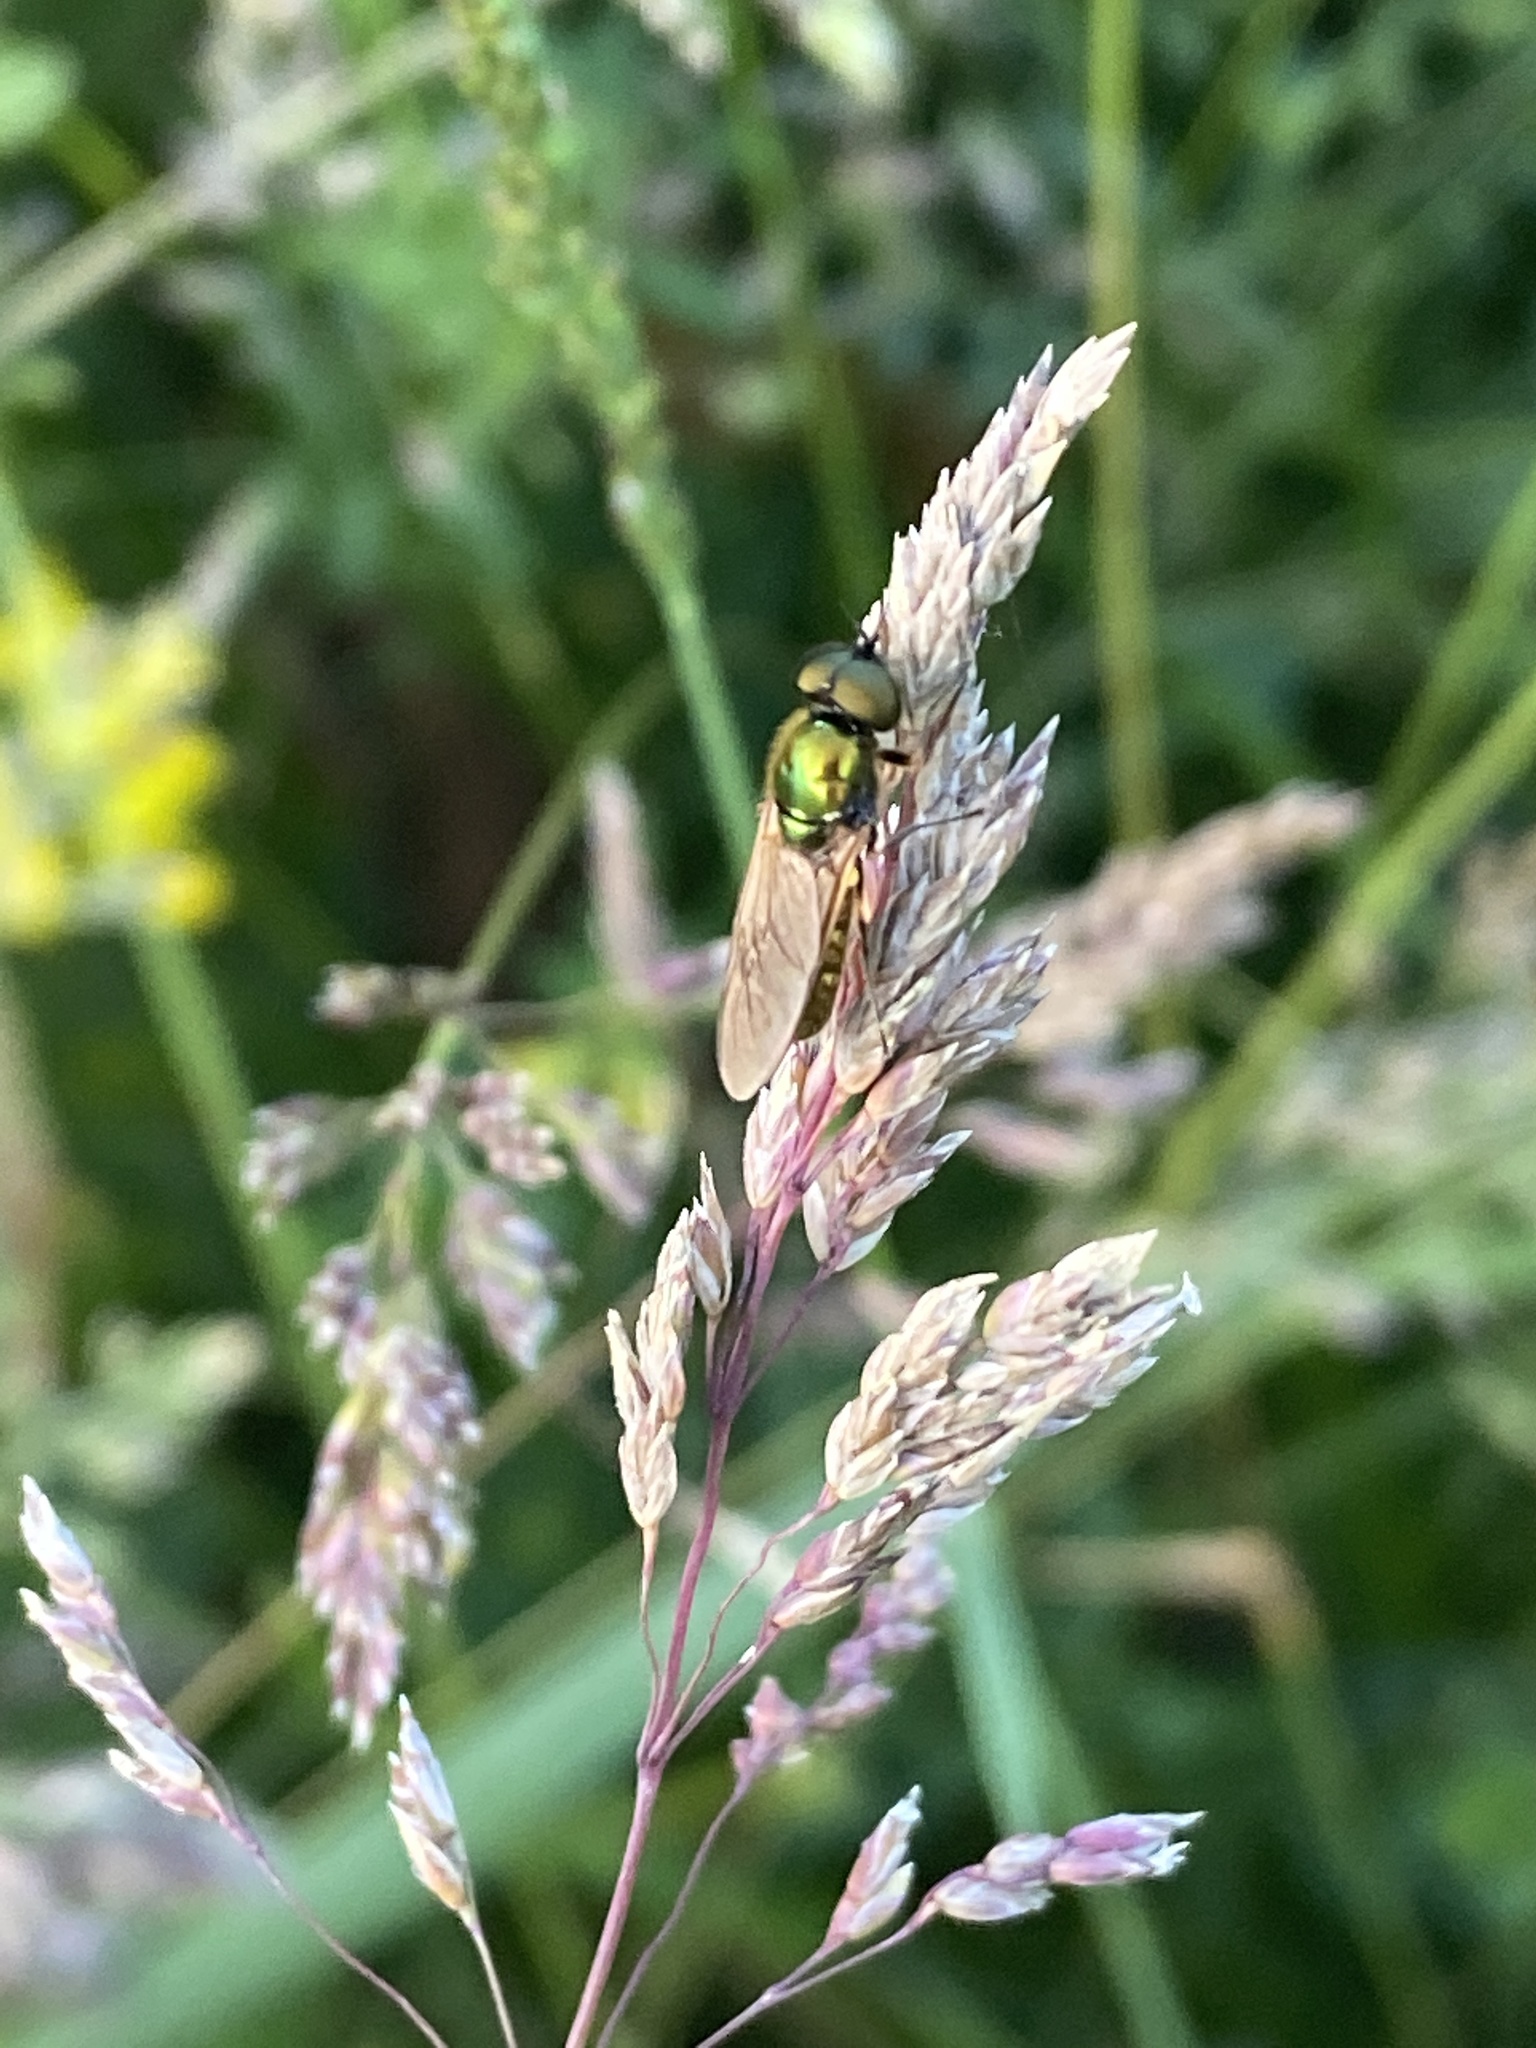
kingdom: Animalia
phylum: Arthropoda
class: Insecta
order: Diptera
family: Stratiomyidae
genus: Chloromyia
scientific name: Chloromyia formosa
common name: Soldier fly
